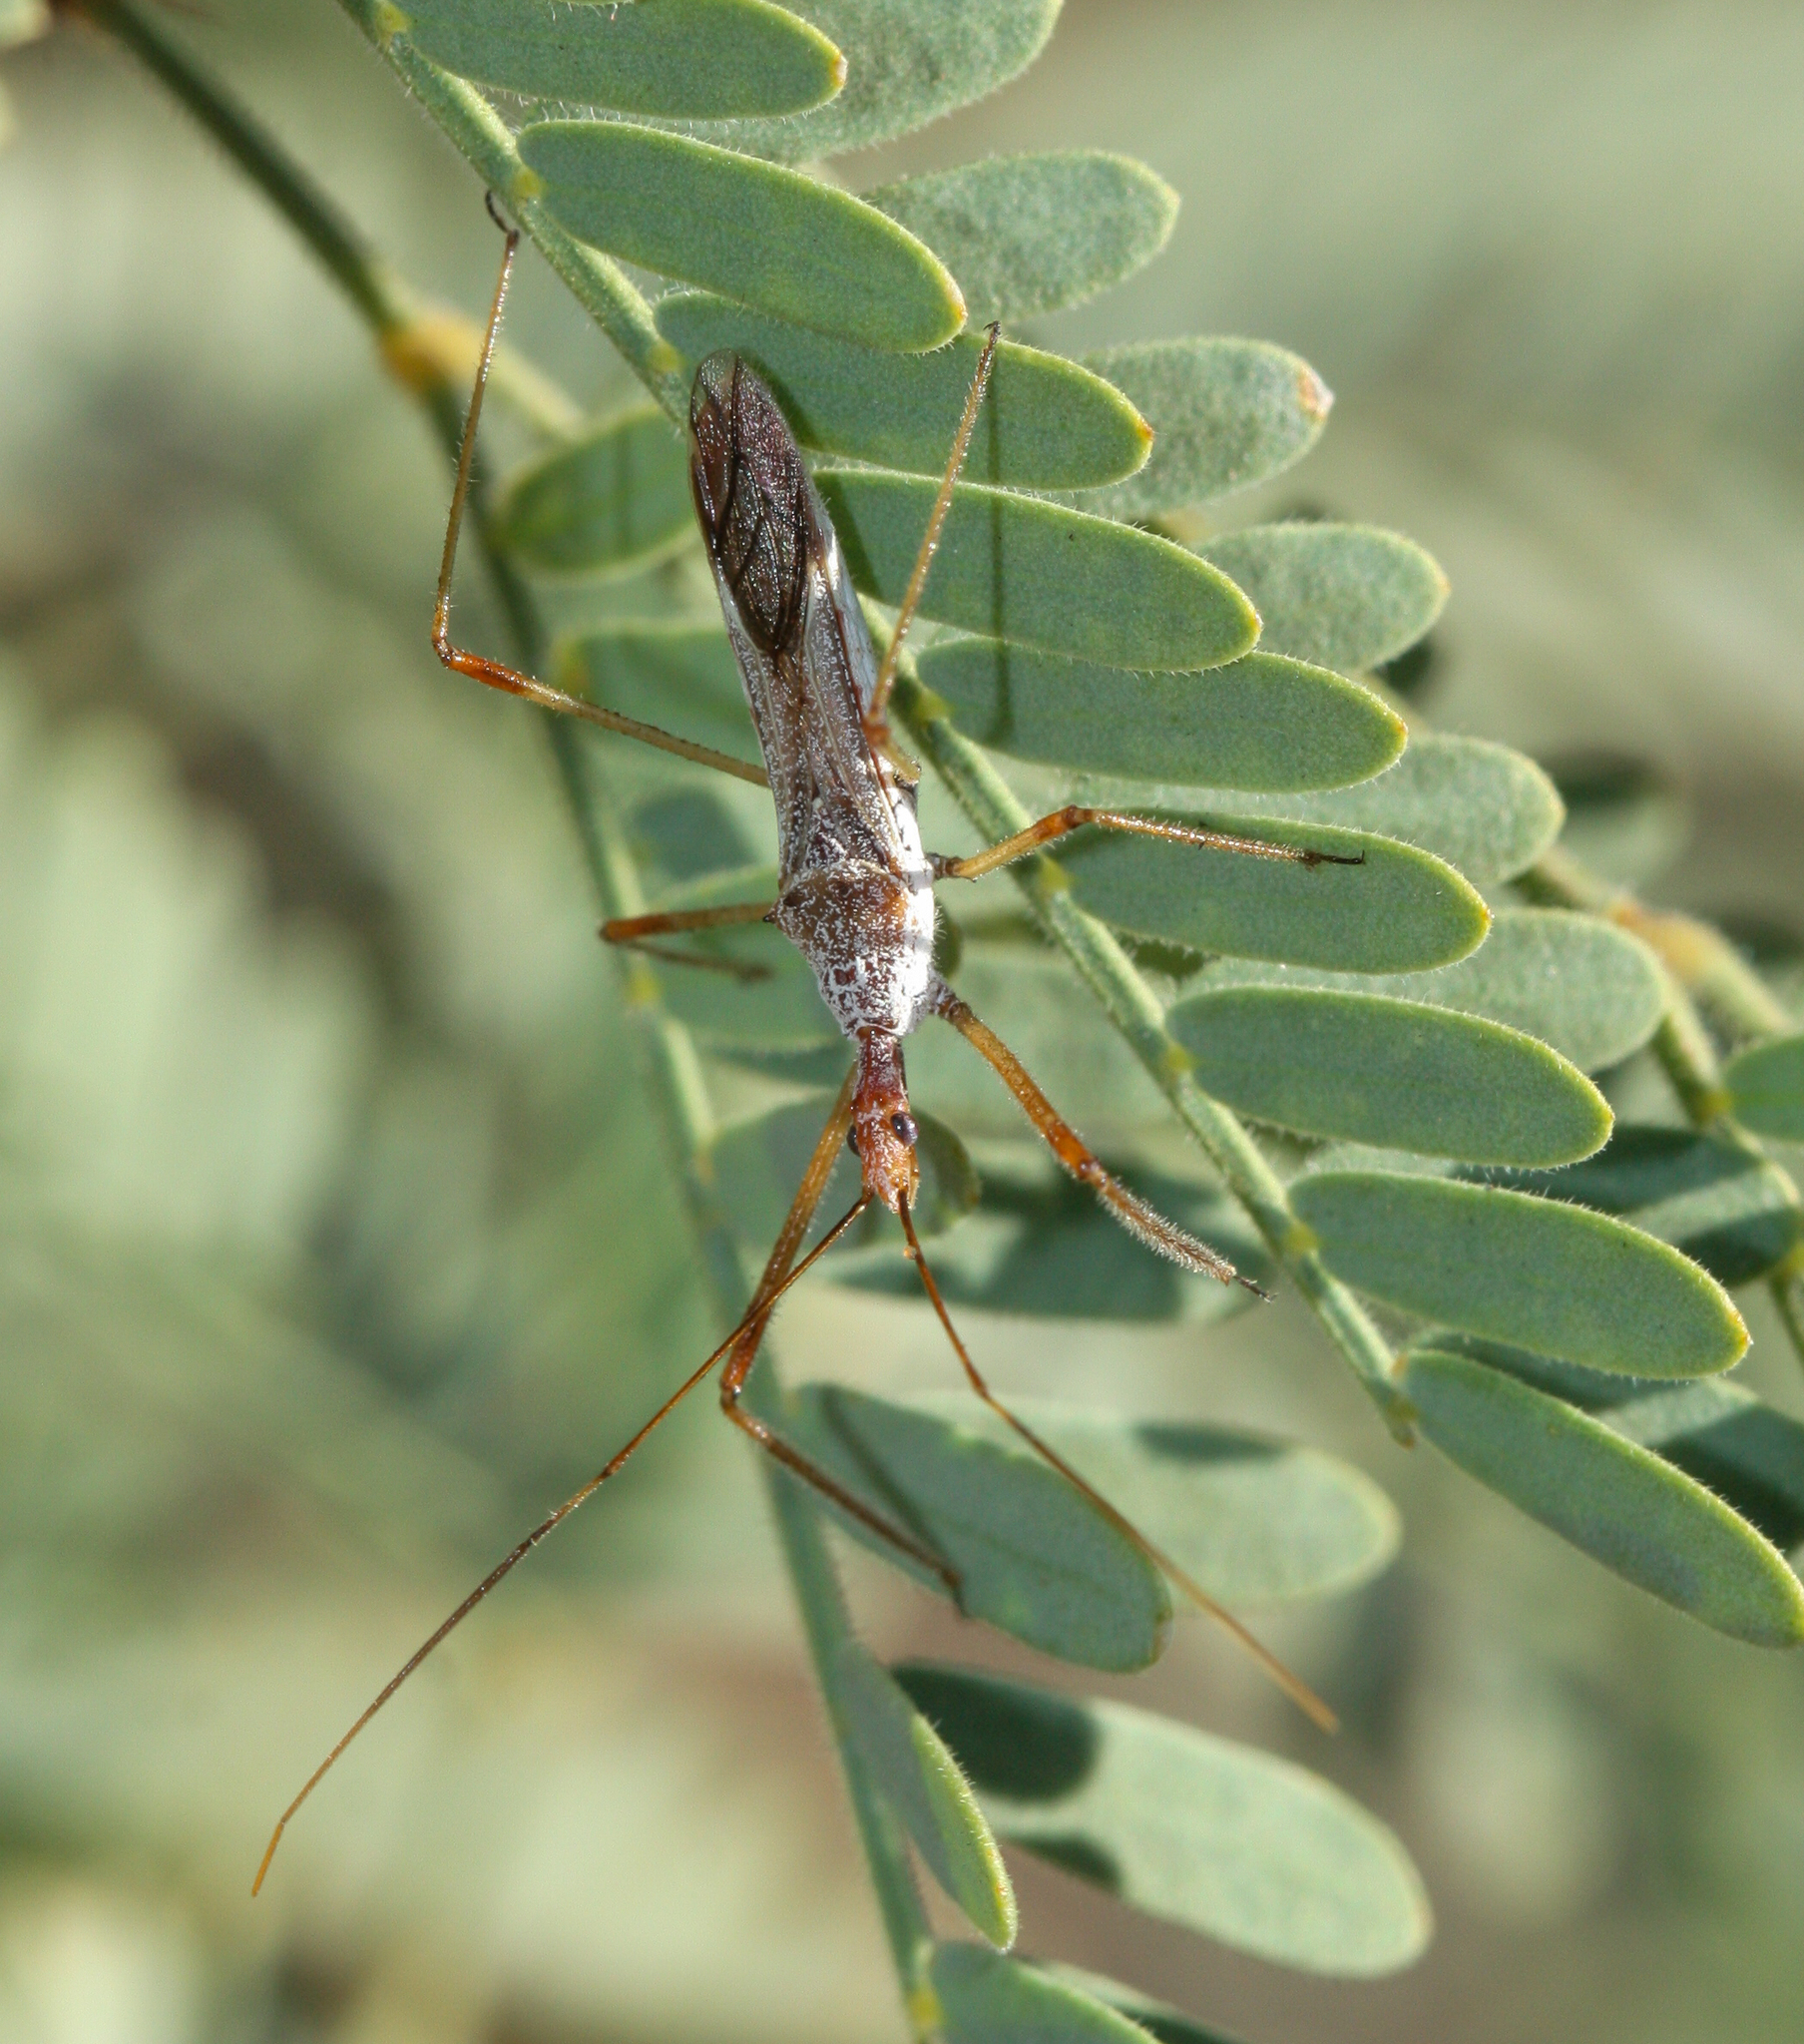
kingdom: Animalia
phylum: Arthropoda
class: Insecta
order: Hemiptera
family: Reduviidae
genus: Zelus
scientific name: Zelus tetracanthus
